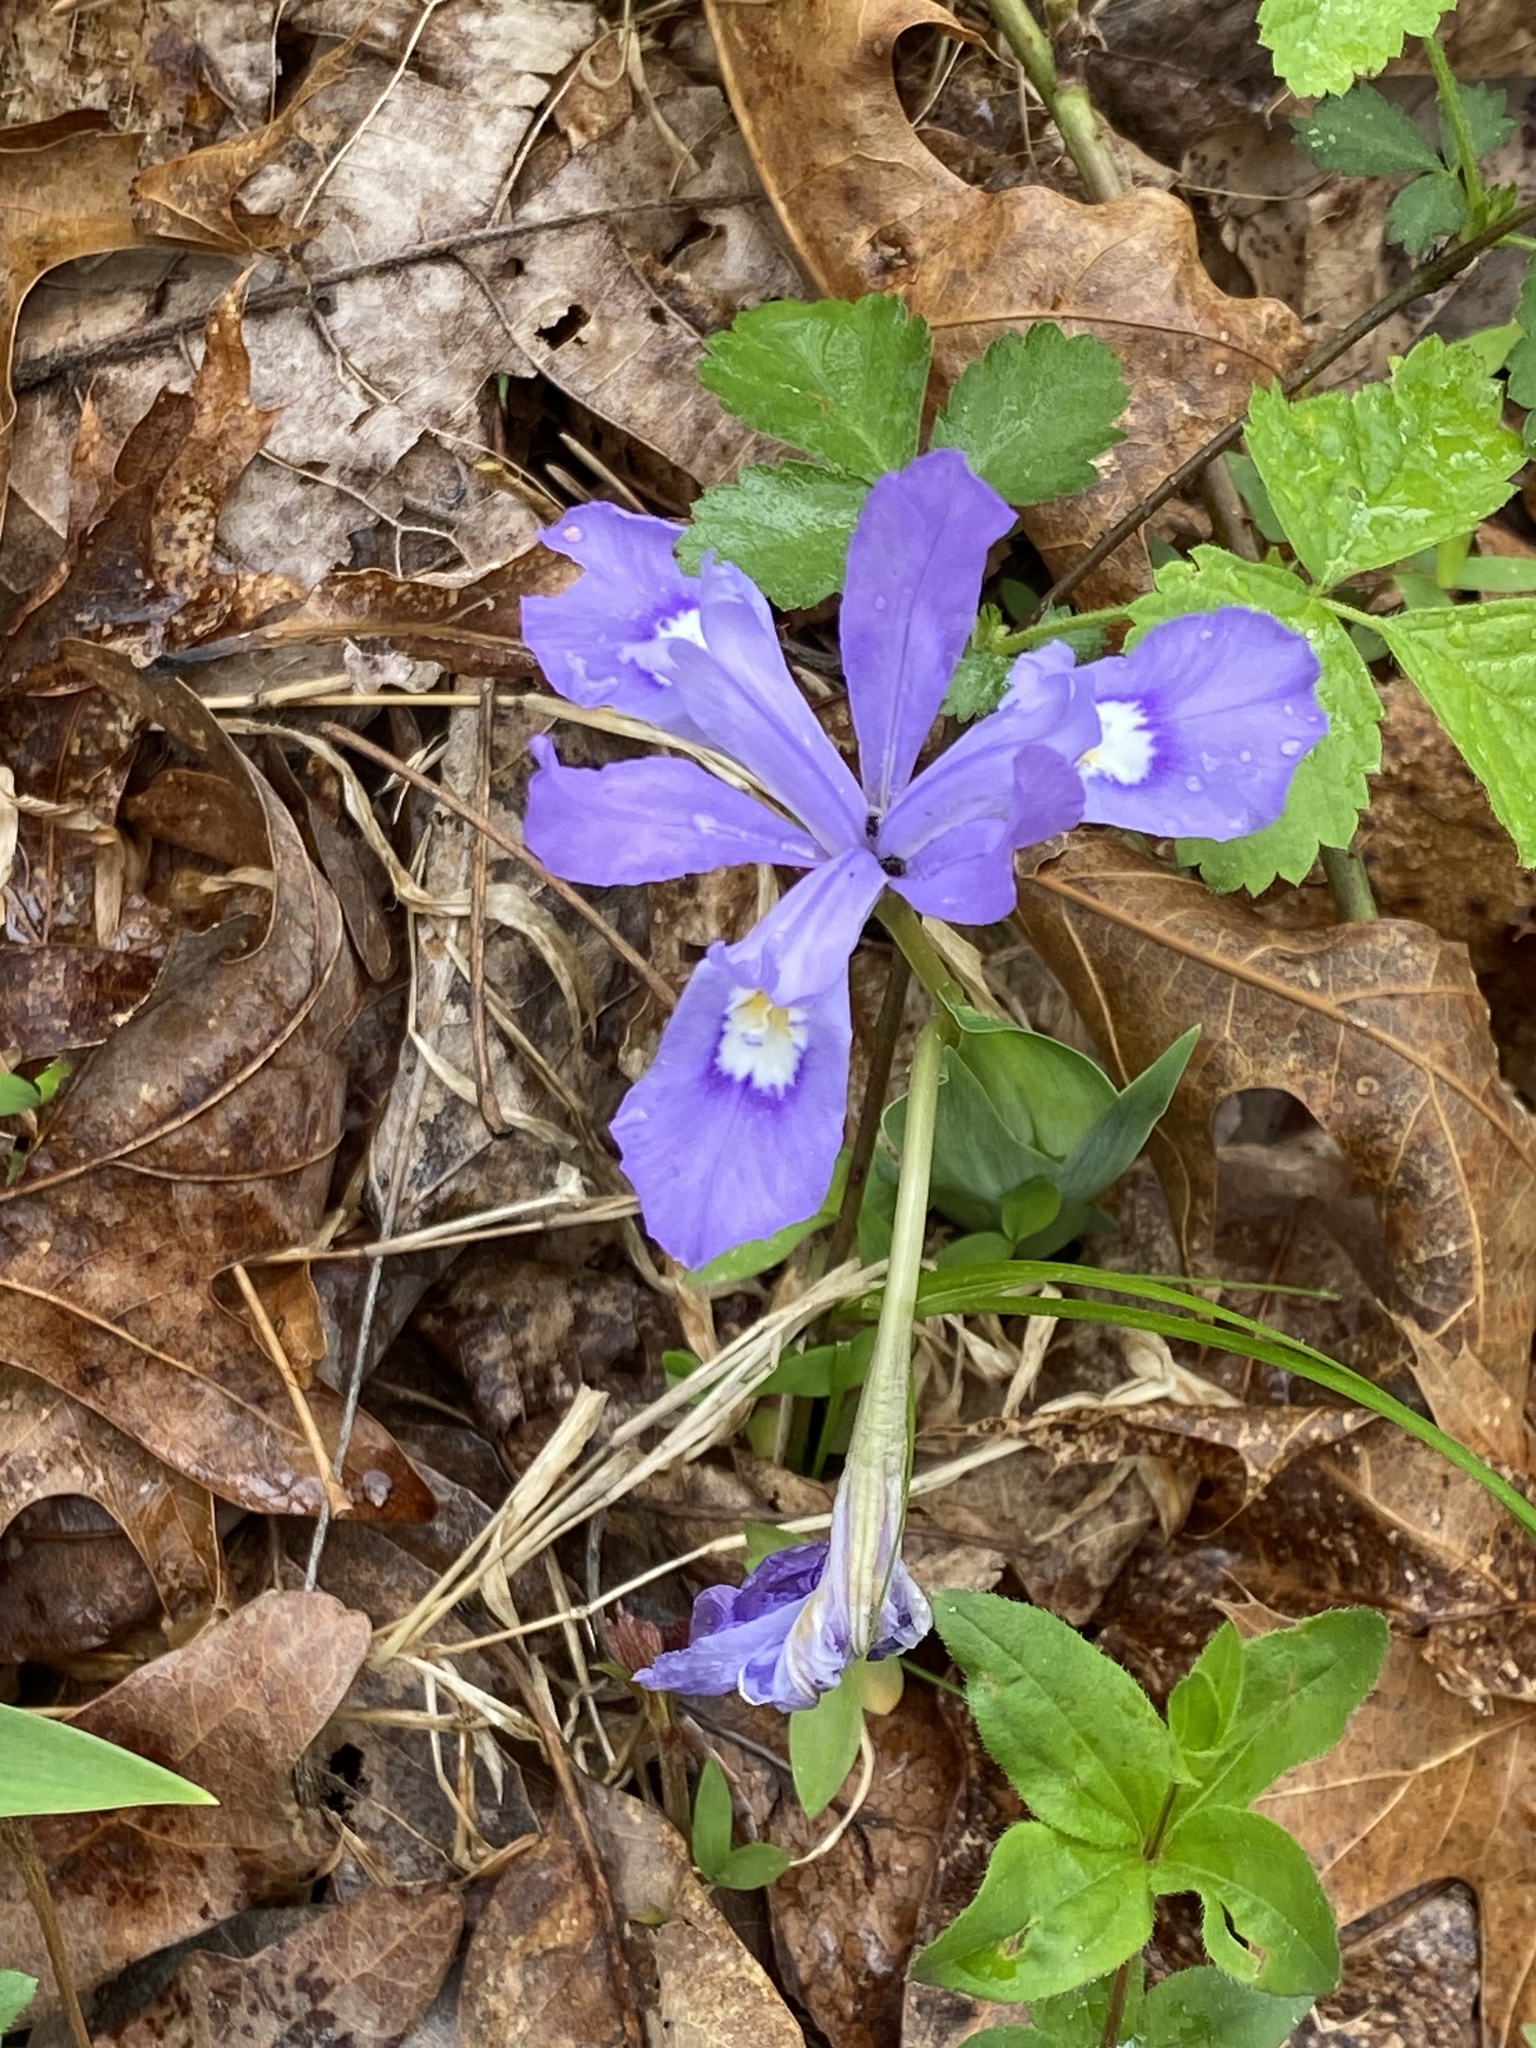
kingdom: Plantae
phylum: Tracheophyta
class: Liliopsida
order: Asparagales
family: Iridaceae
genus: Iris
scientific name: Iris cristata
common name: Crested iris
